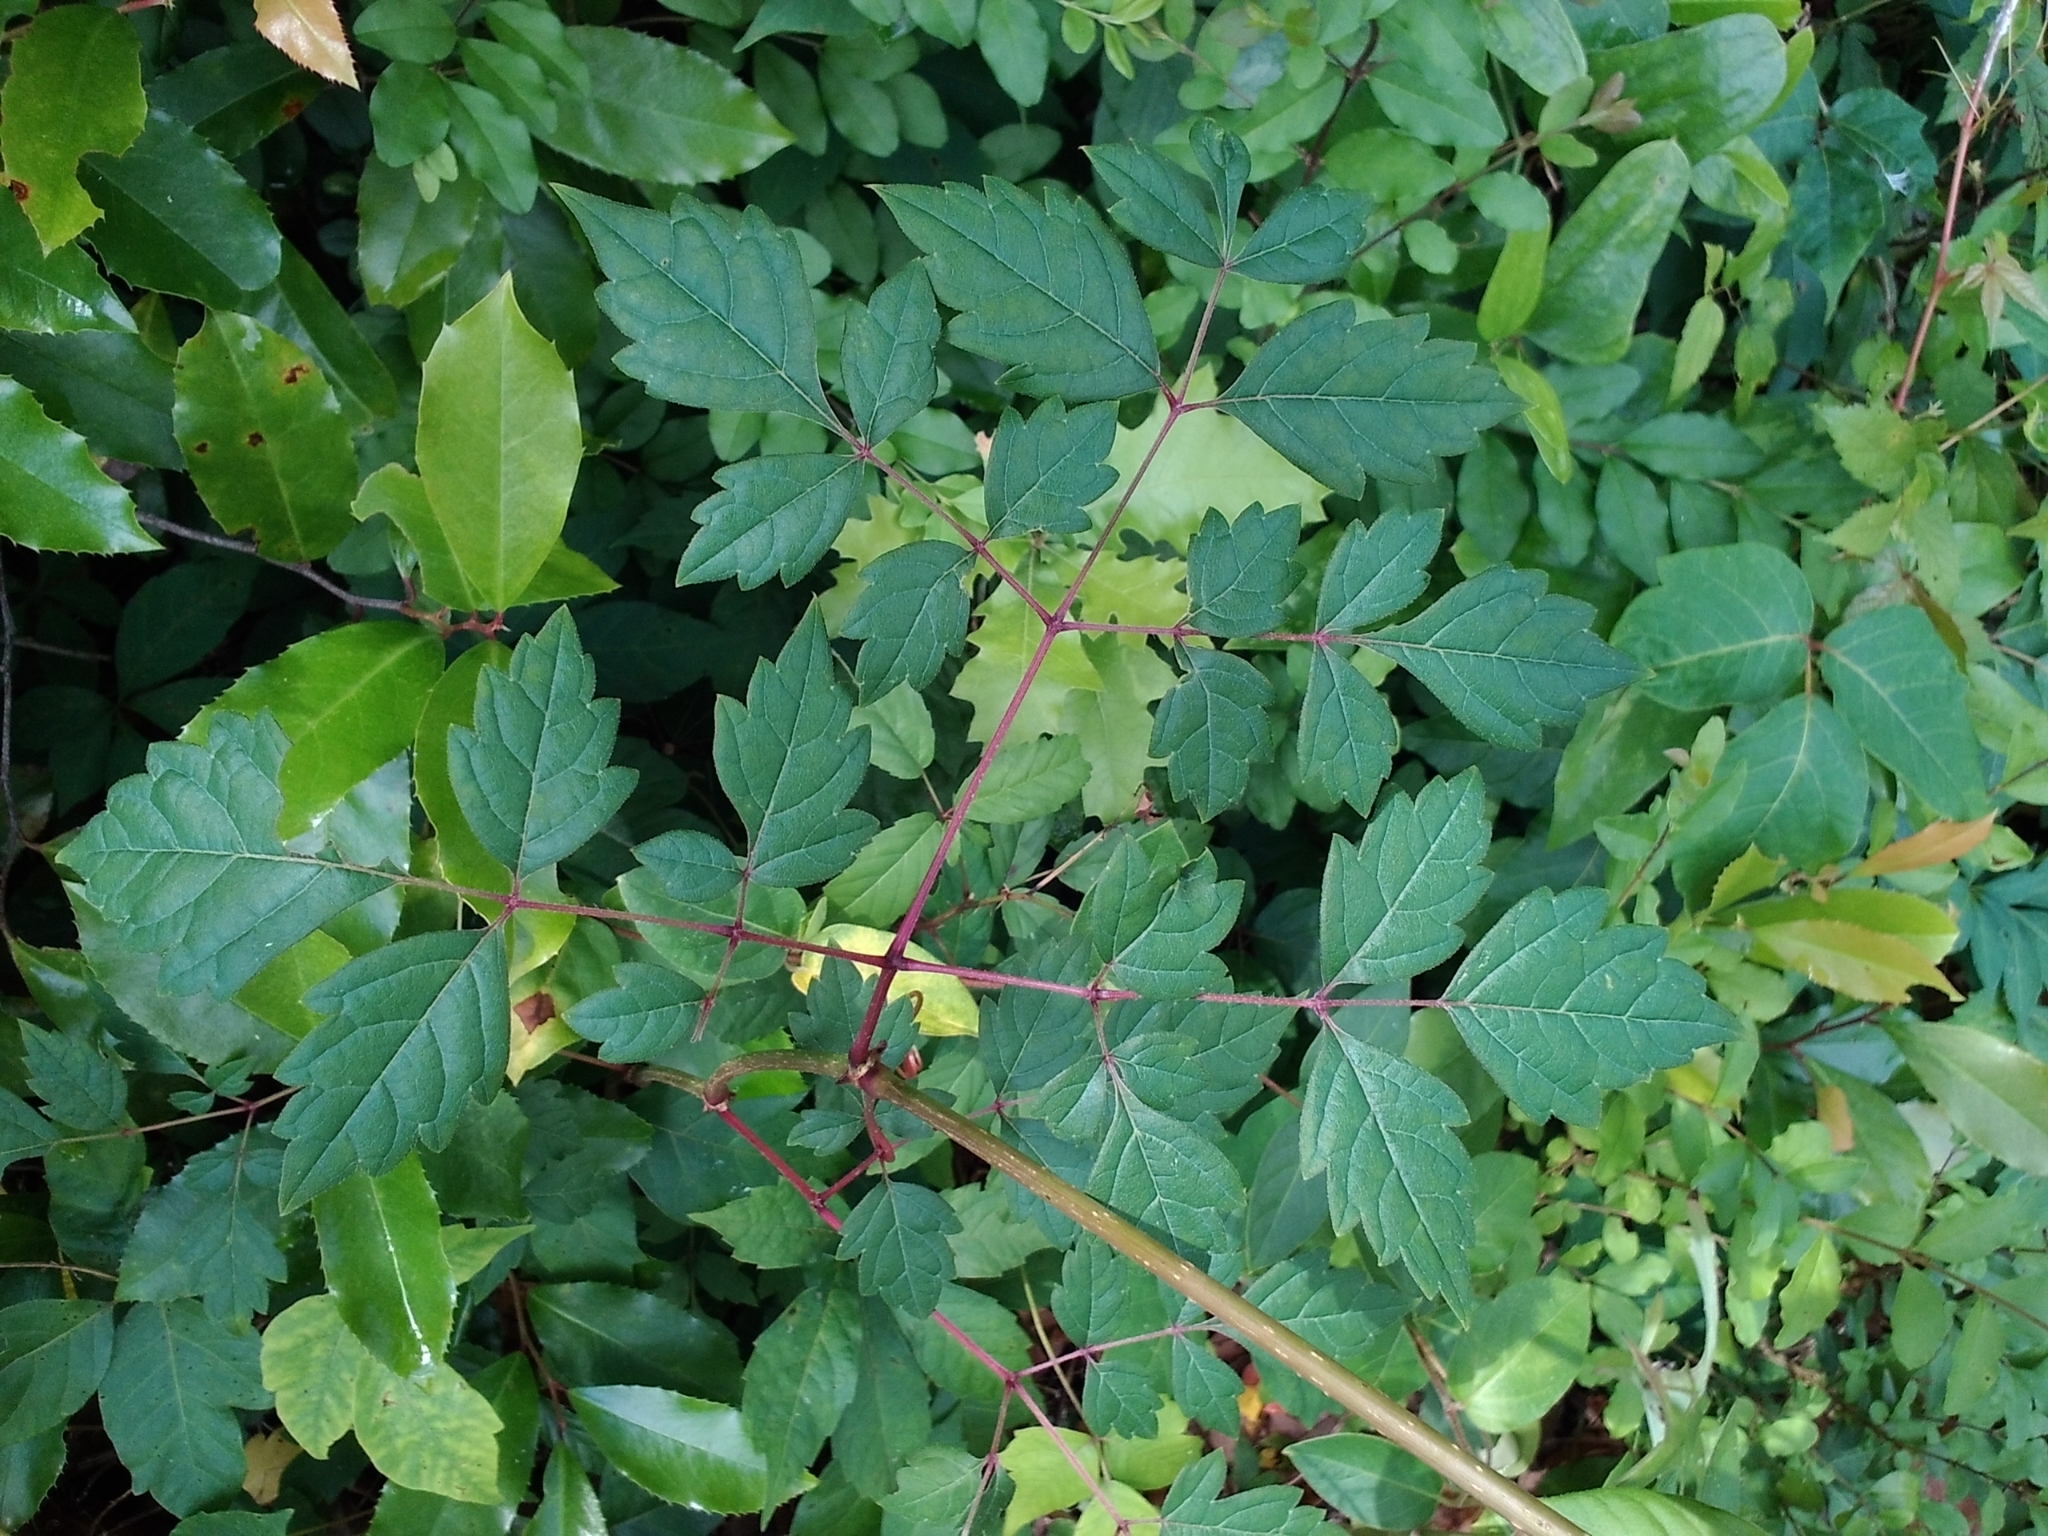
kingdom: Plantae
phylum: Tracheophyta
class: Magnoliopsida
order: Vitales
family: Vitaceae
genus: Nekemias
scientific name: Nekemias arborea
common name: Peppervine
